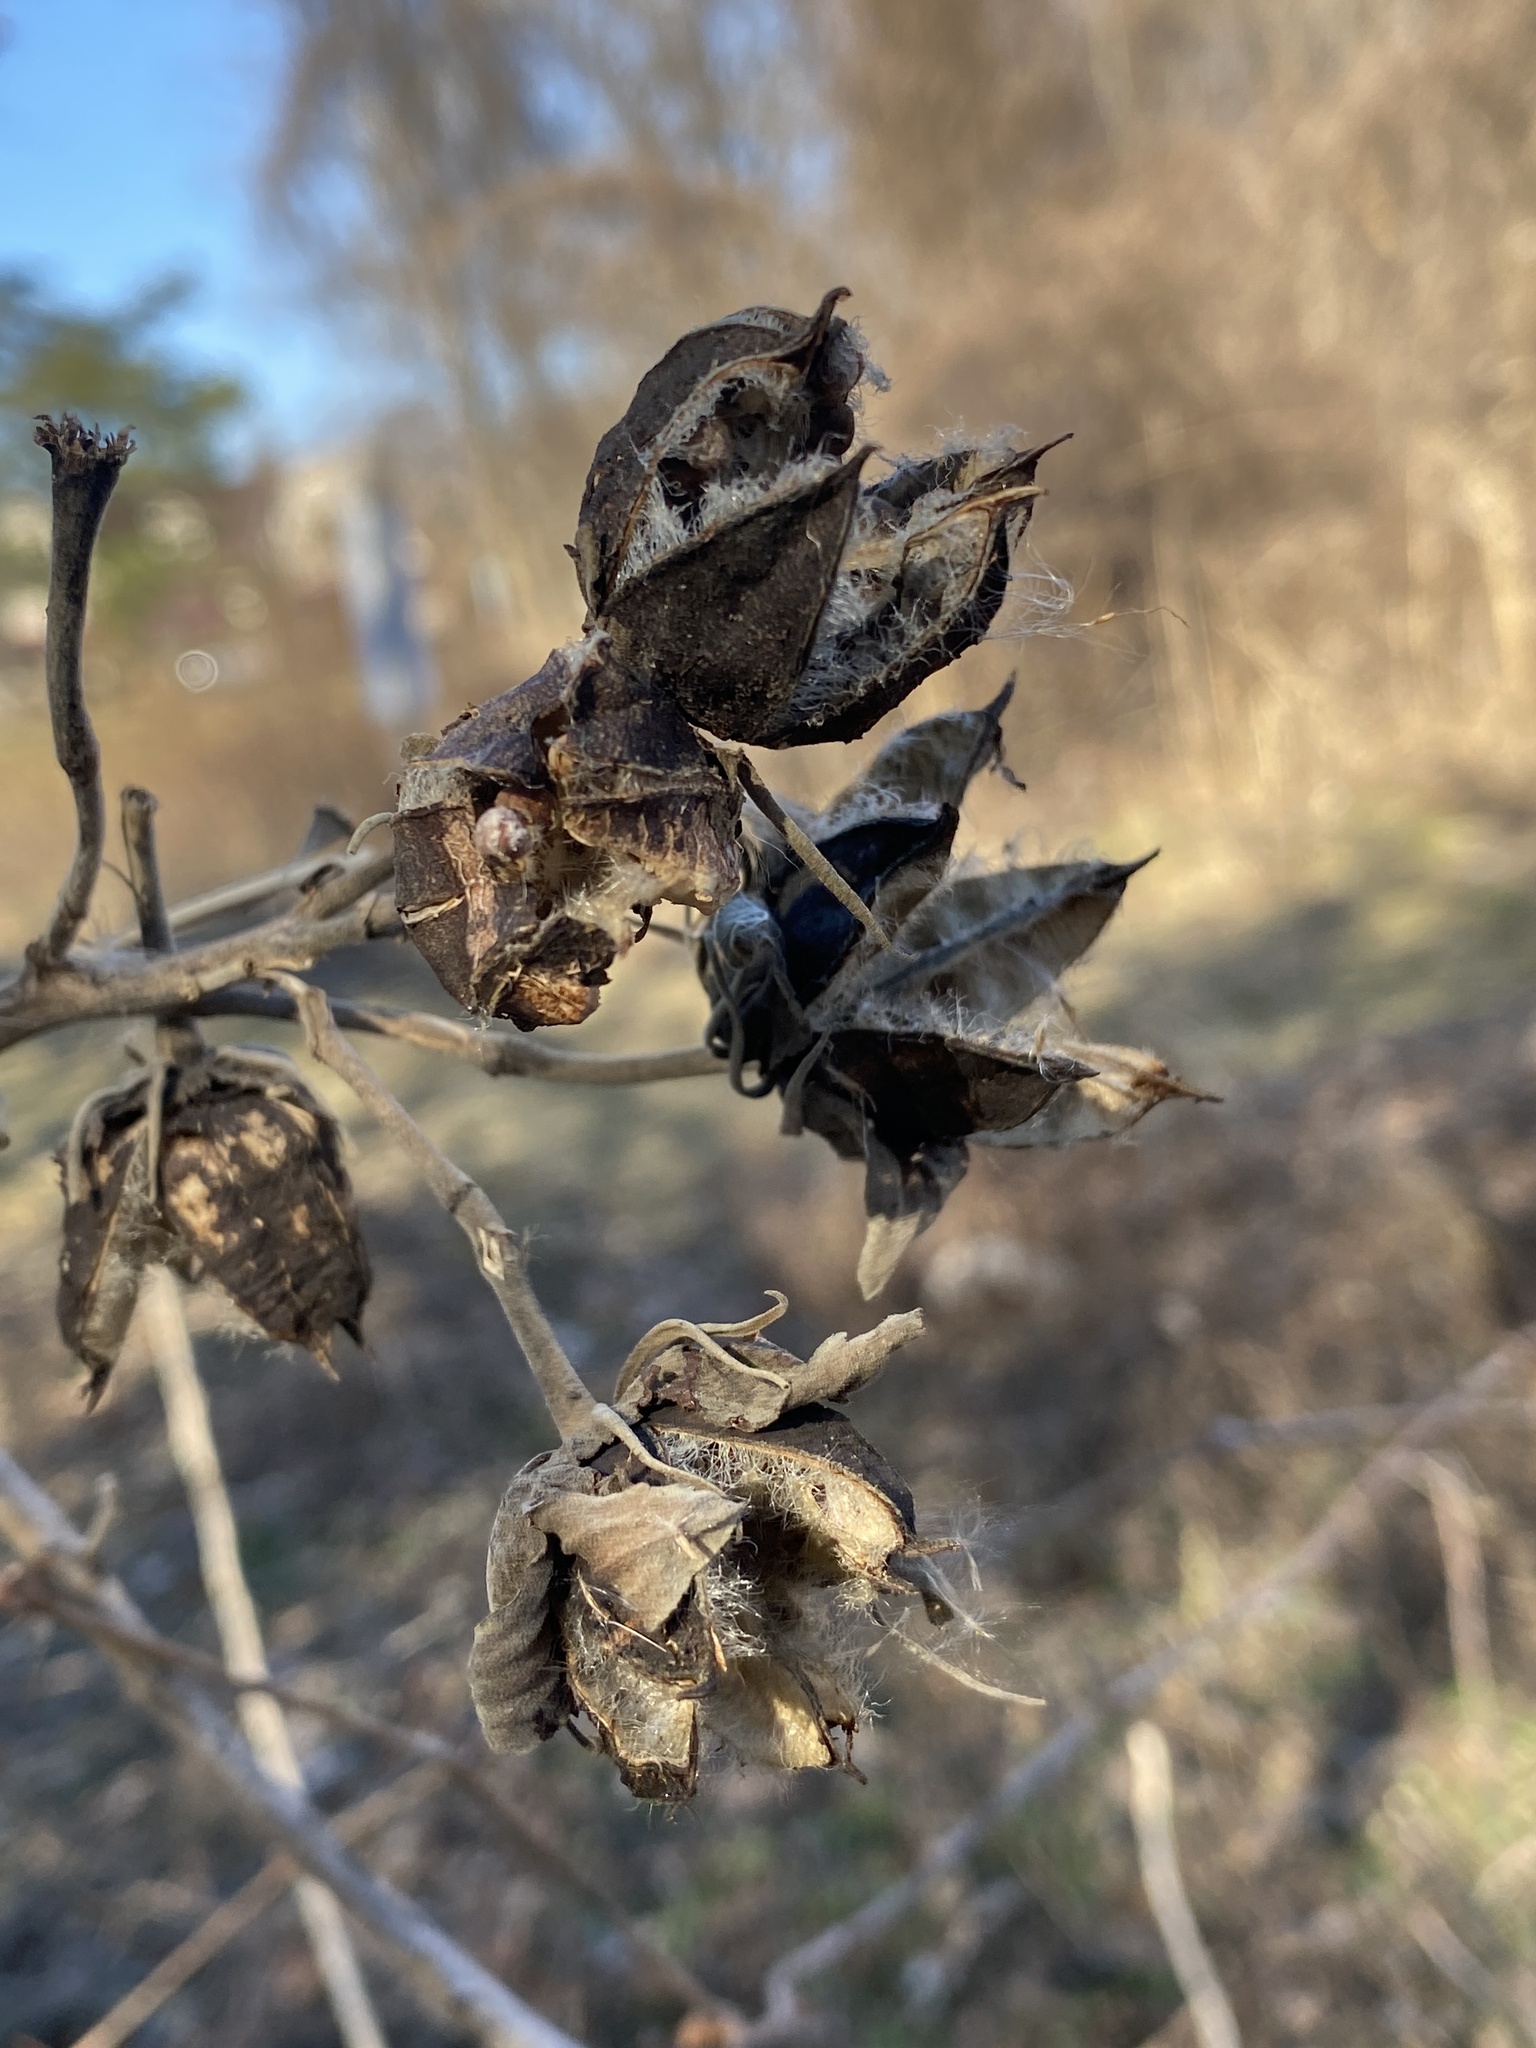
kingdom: Plantae
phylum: Tracheophyta
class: Magnoliopsida
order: Malvales
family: Malvaceae
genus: Hibiscus
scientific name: Hibiscus moscheutos
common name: Common rose-mallow
